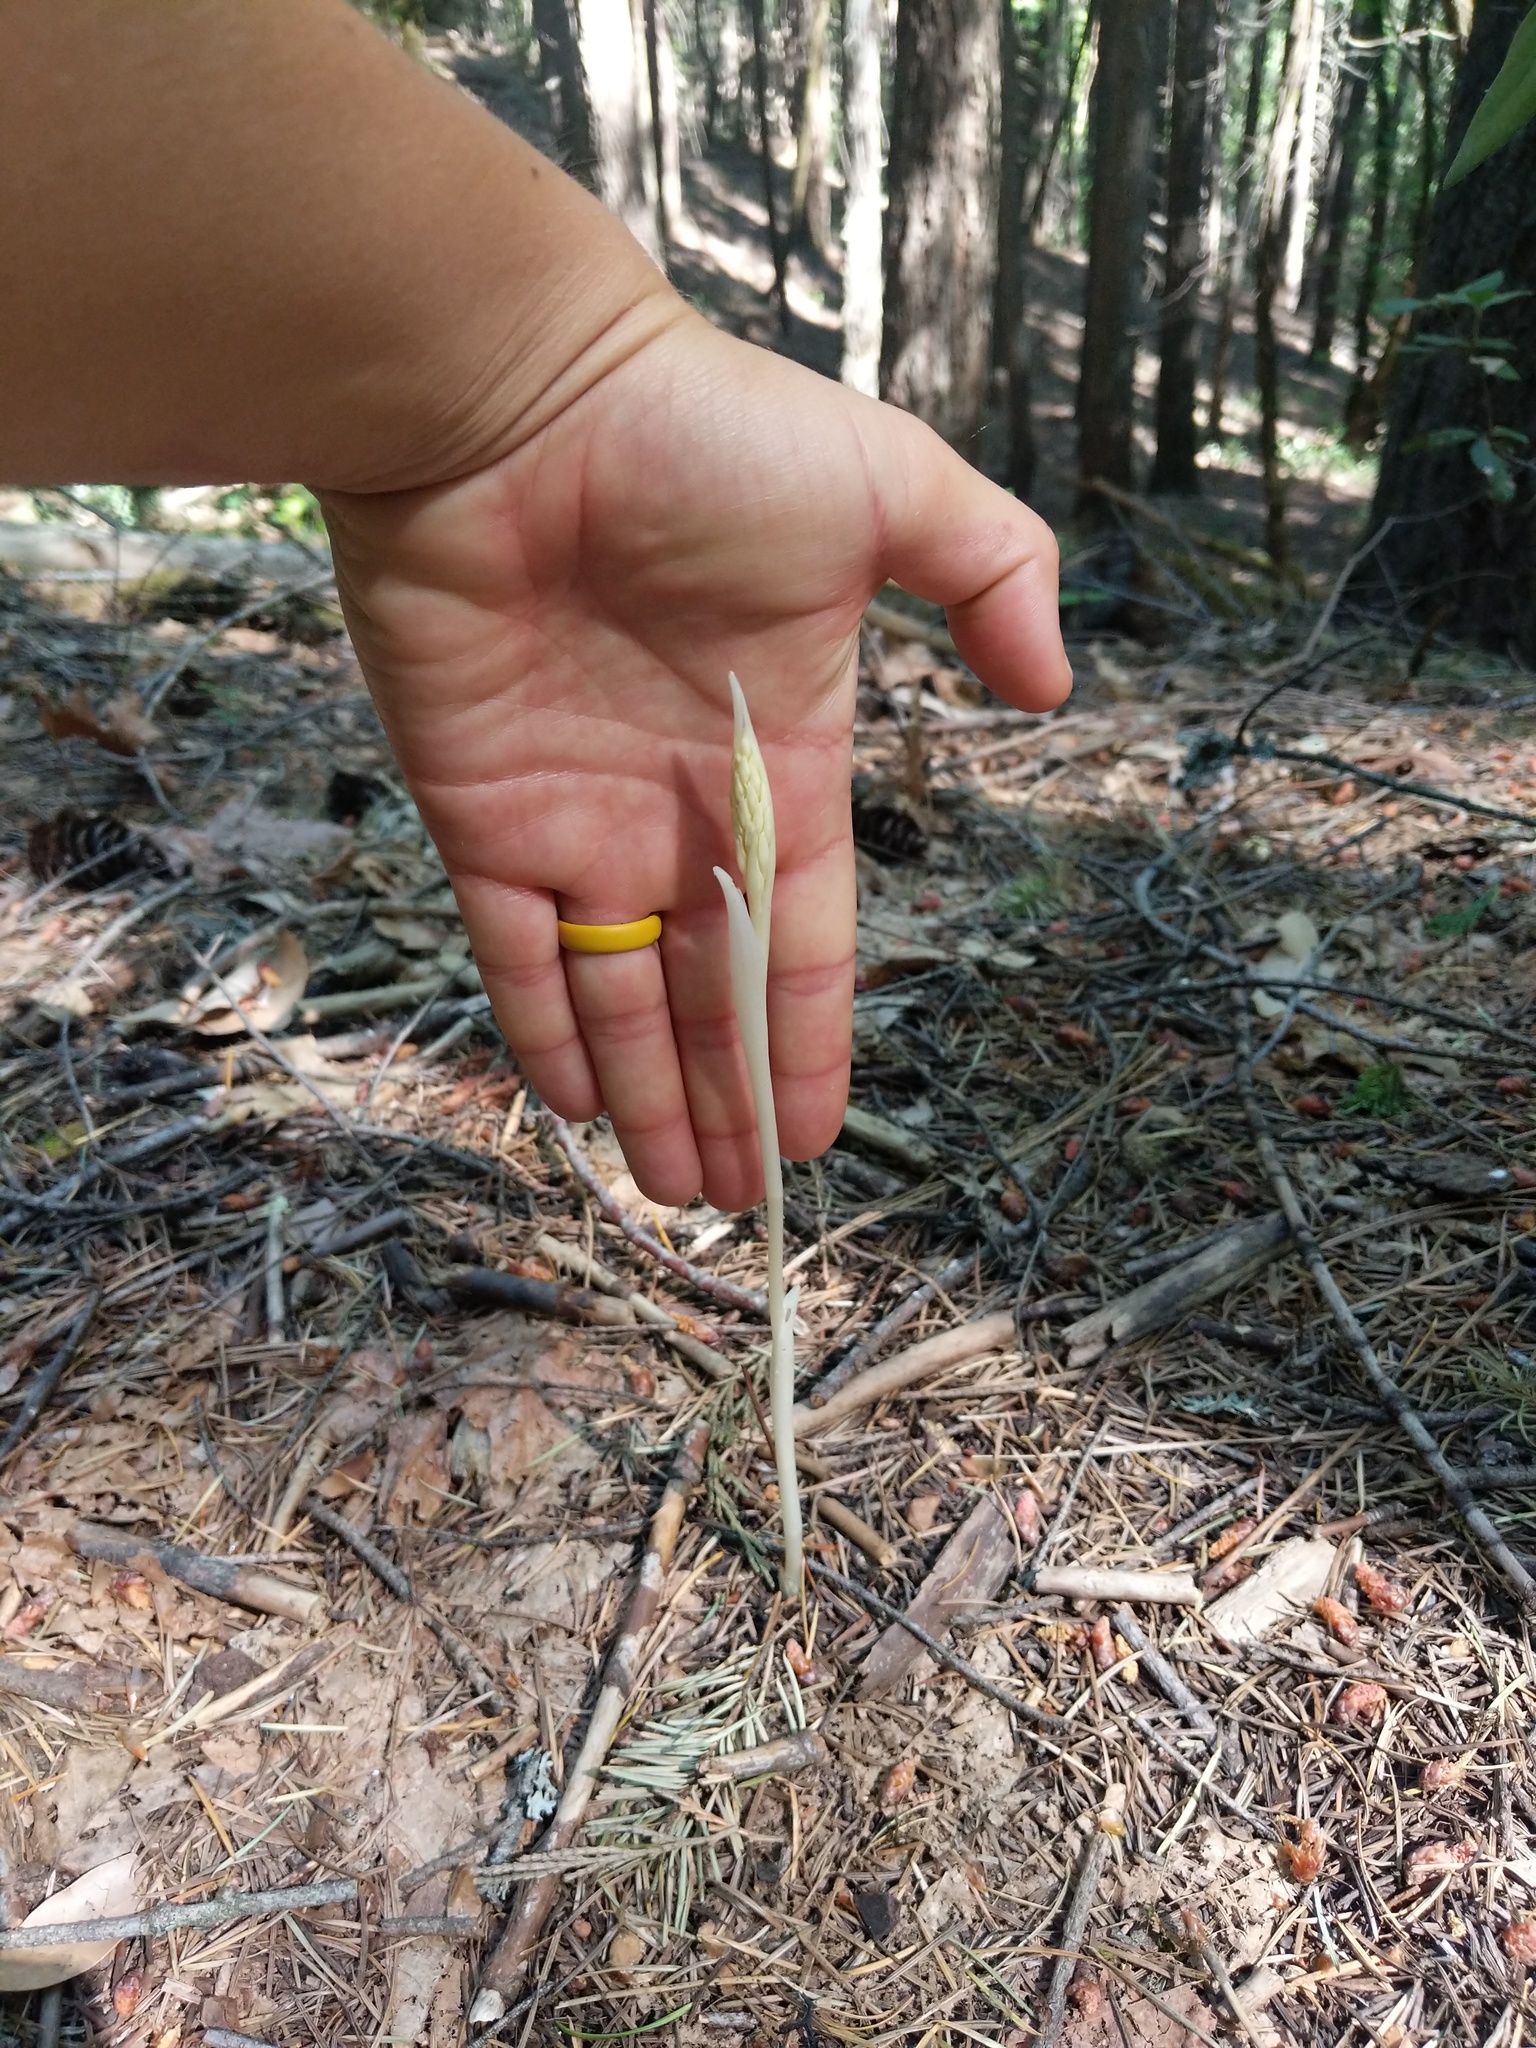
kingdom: Plantae
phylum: Tracheophyta
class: Liliopsida
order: Asparagales
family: Orchidaceae
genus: Cephalanthera
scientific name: Cephalanthera austiniae
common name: Phantom orchid
